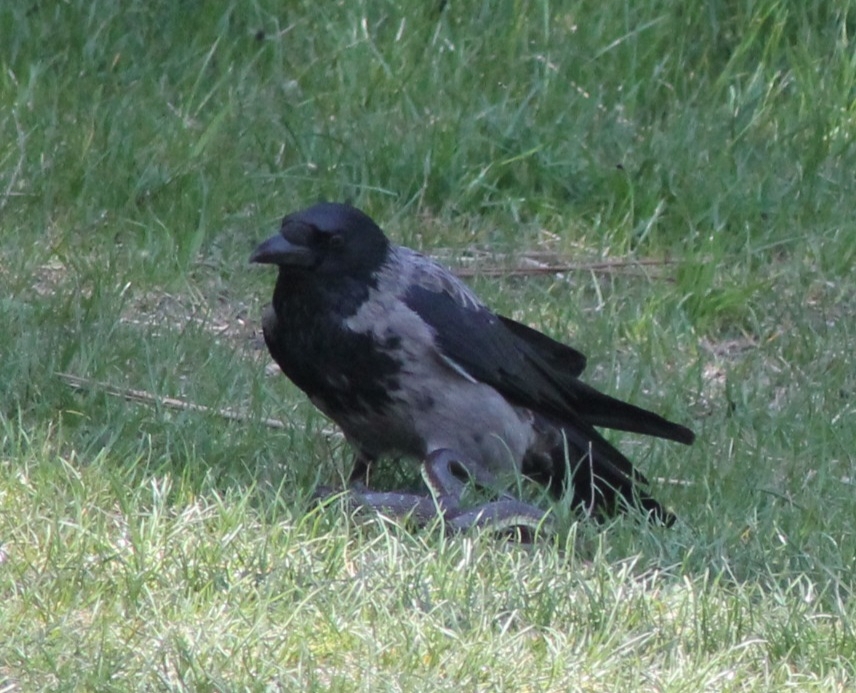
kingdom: Animalia
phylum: Chordata
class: Aves
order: Passeriformes
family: Corvidae
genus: Corvus
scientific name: Corvus
